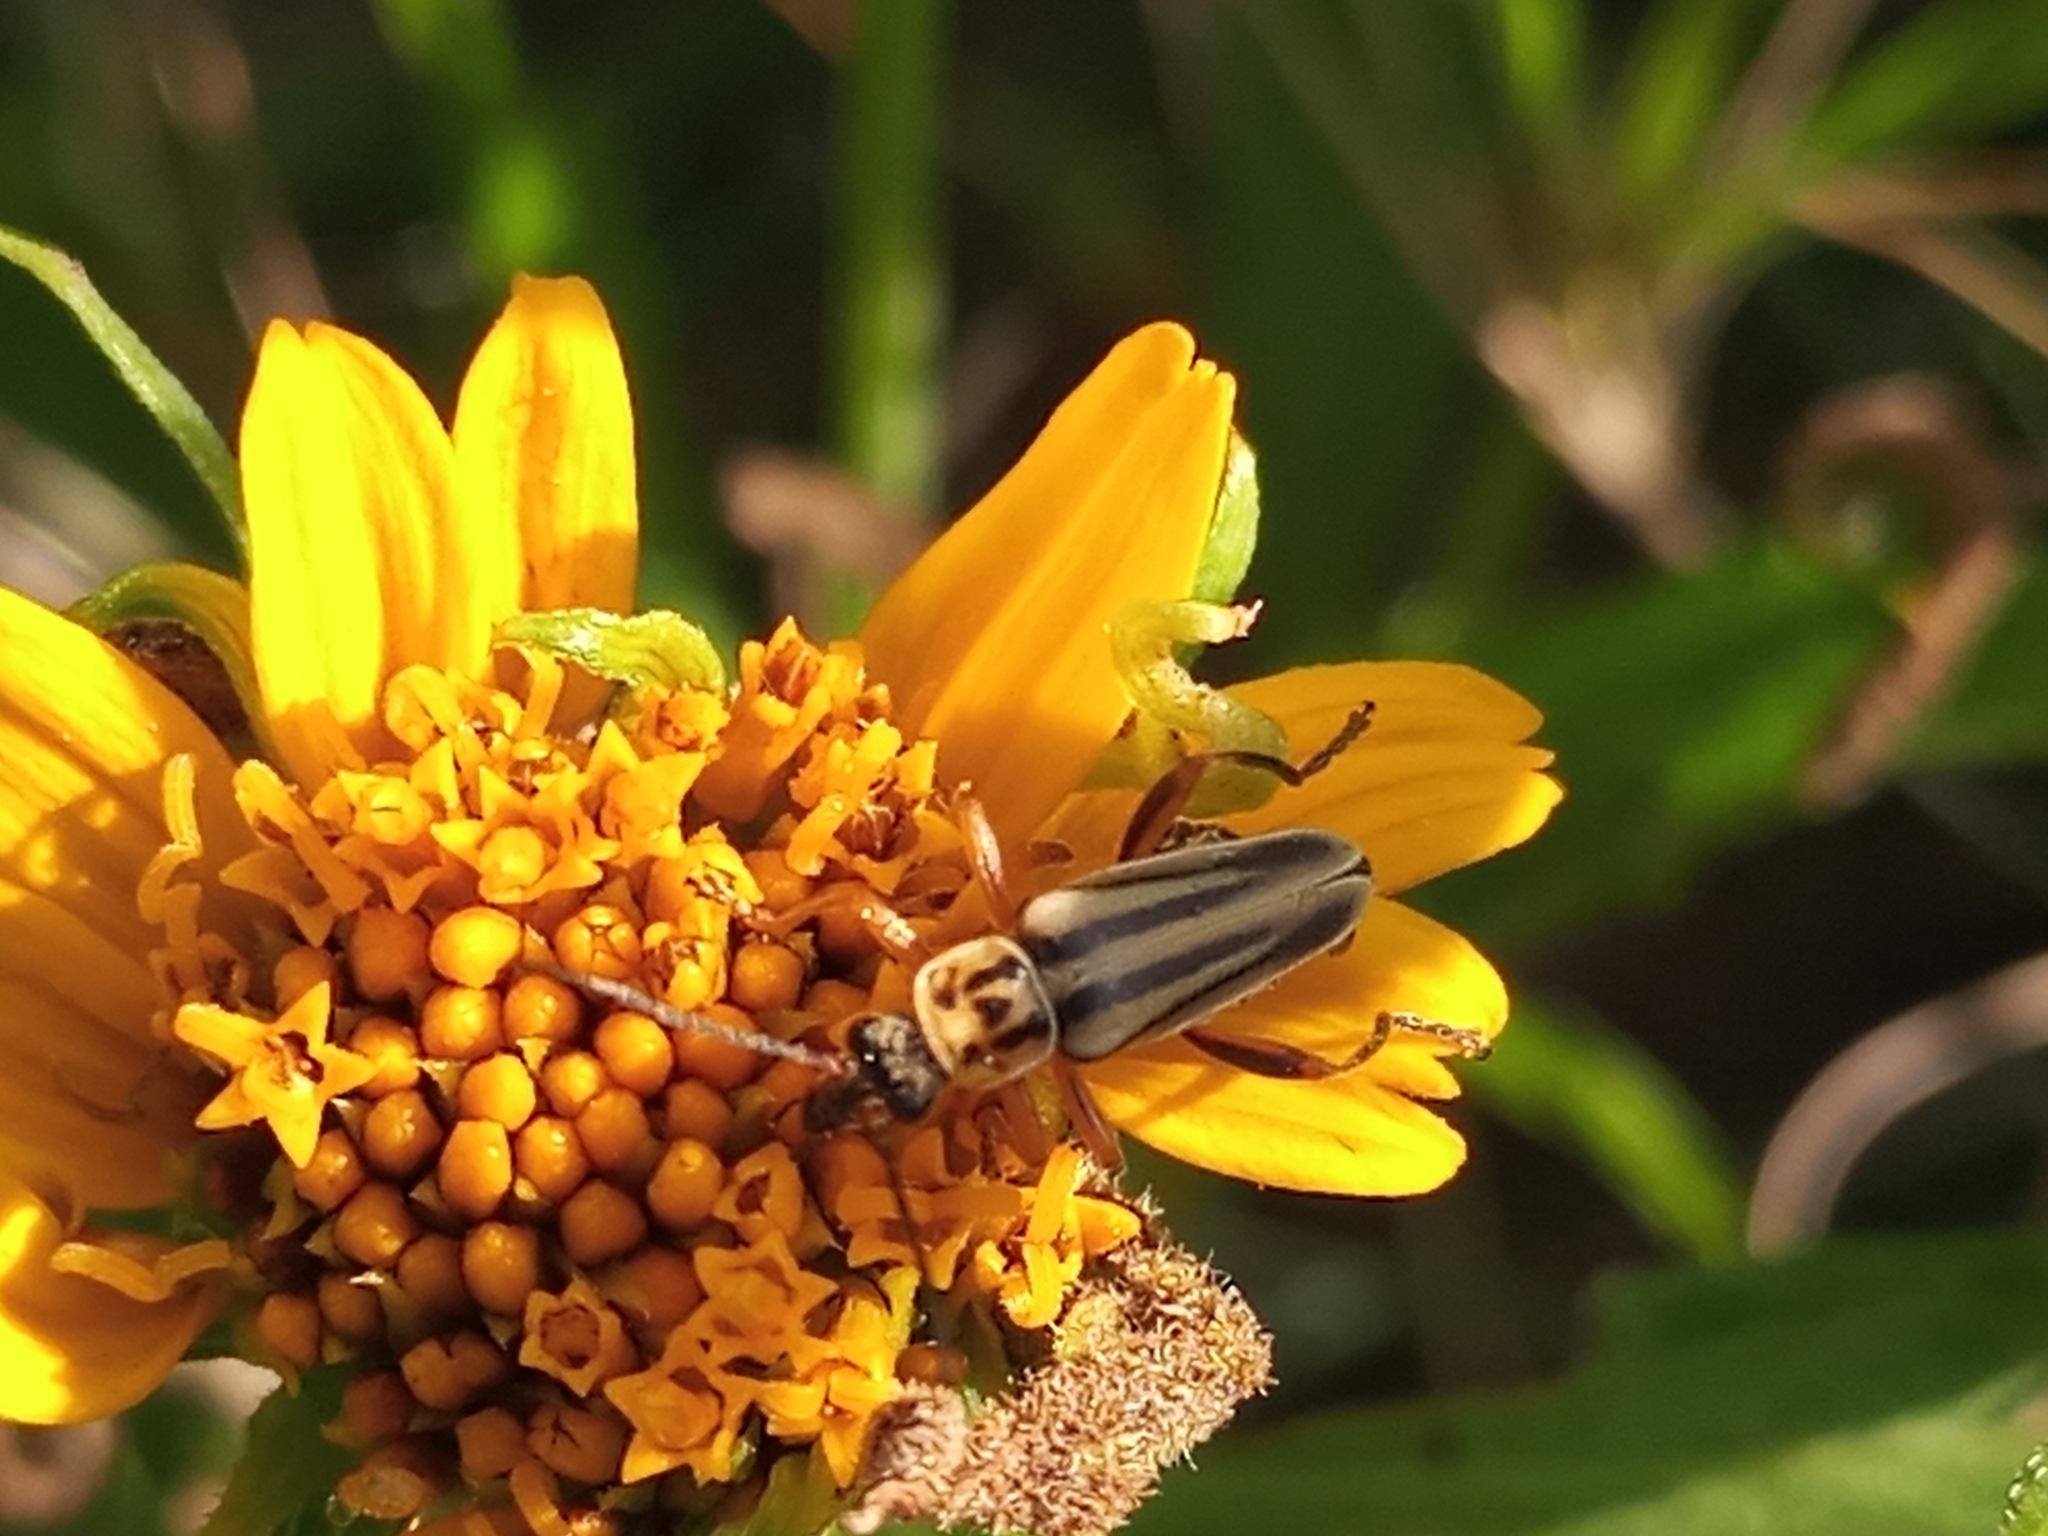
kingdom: Animalia
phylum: Arthropoda
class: Insecta
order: Coleoptera
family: Cantharidae
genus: Chauliognathus
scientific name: Chauliognathus
